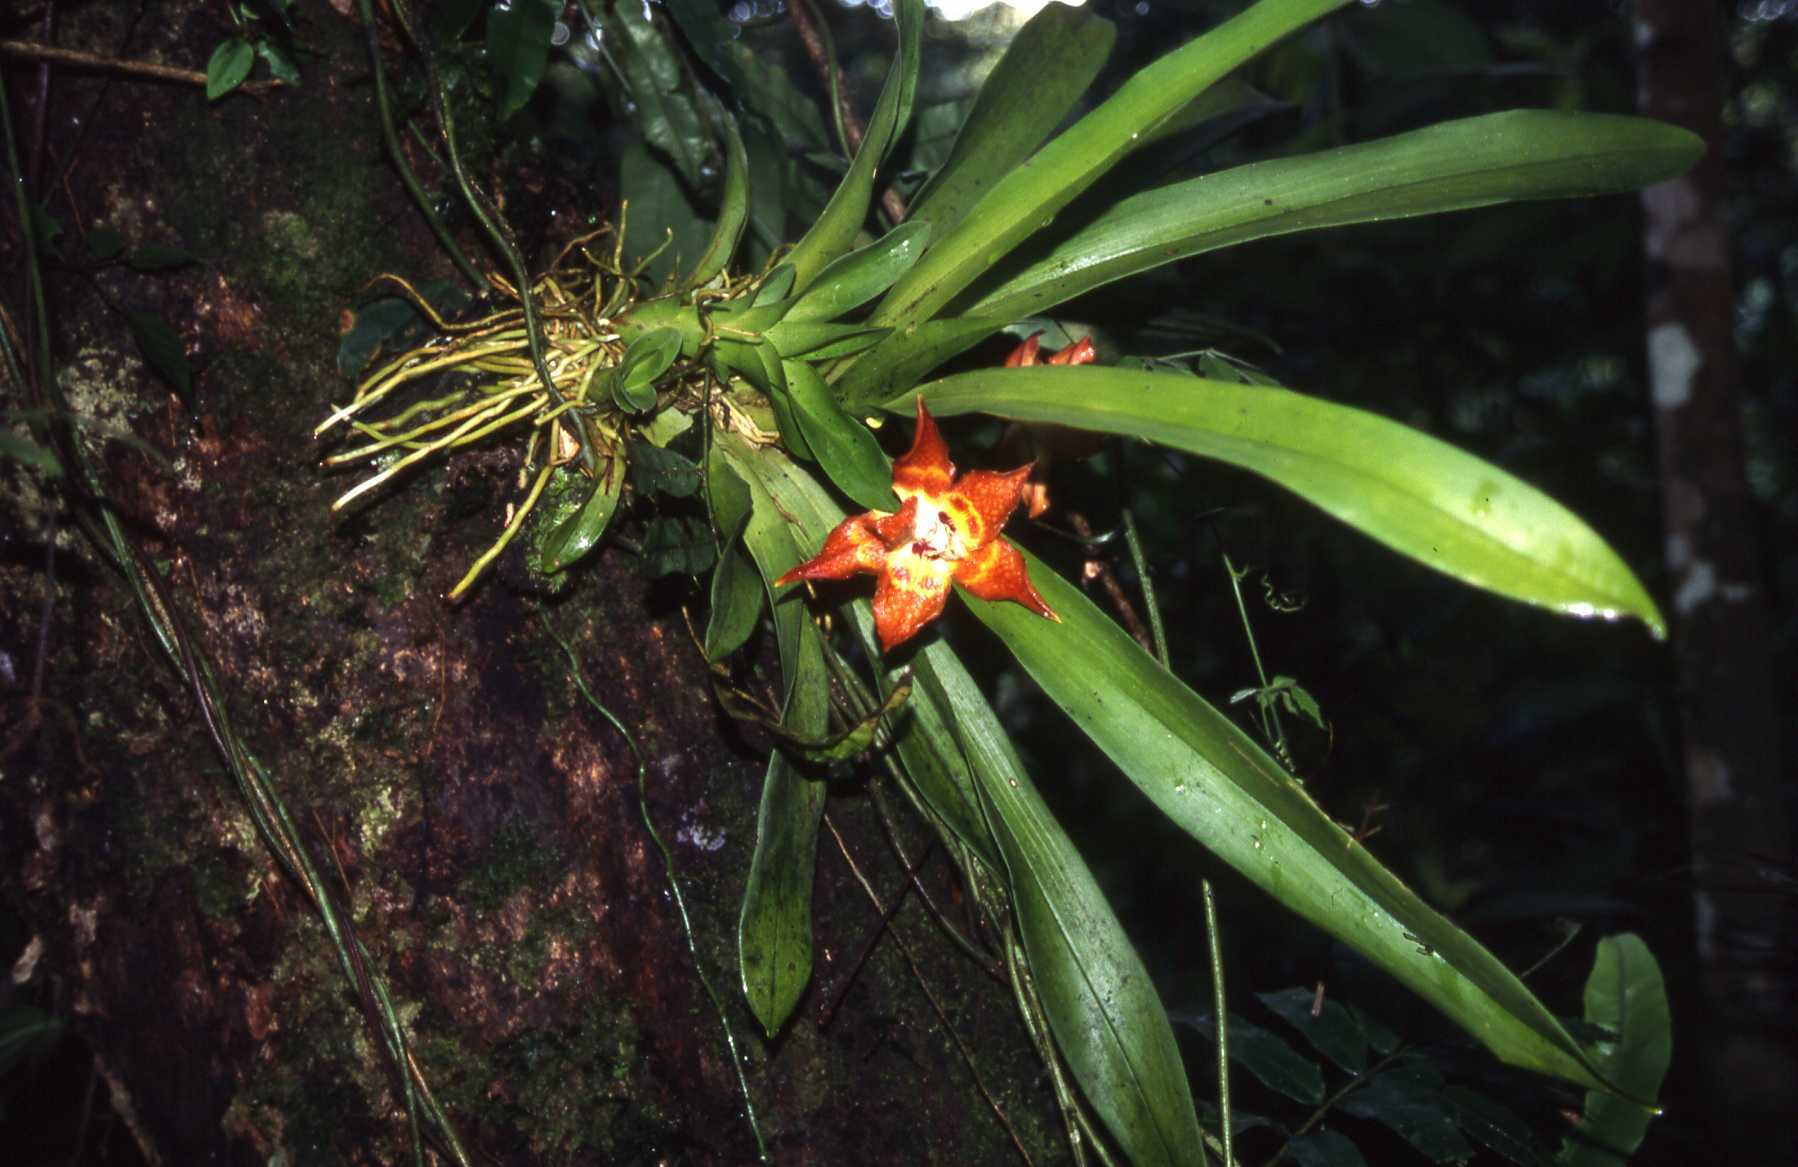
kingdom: Plantae
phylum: Tracheophyta
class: Liliopsida
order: Asparagales
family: Orchidaceae
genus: Huntleya
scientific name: Huntleya burtii
